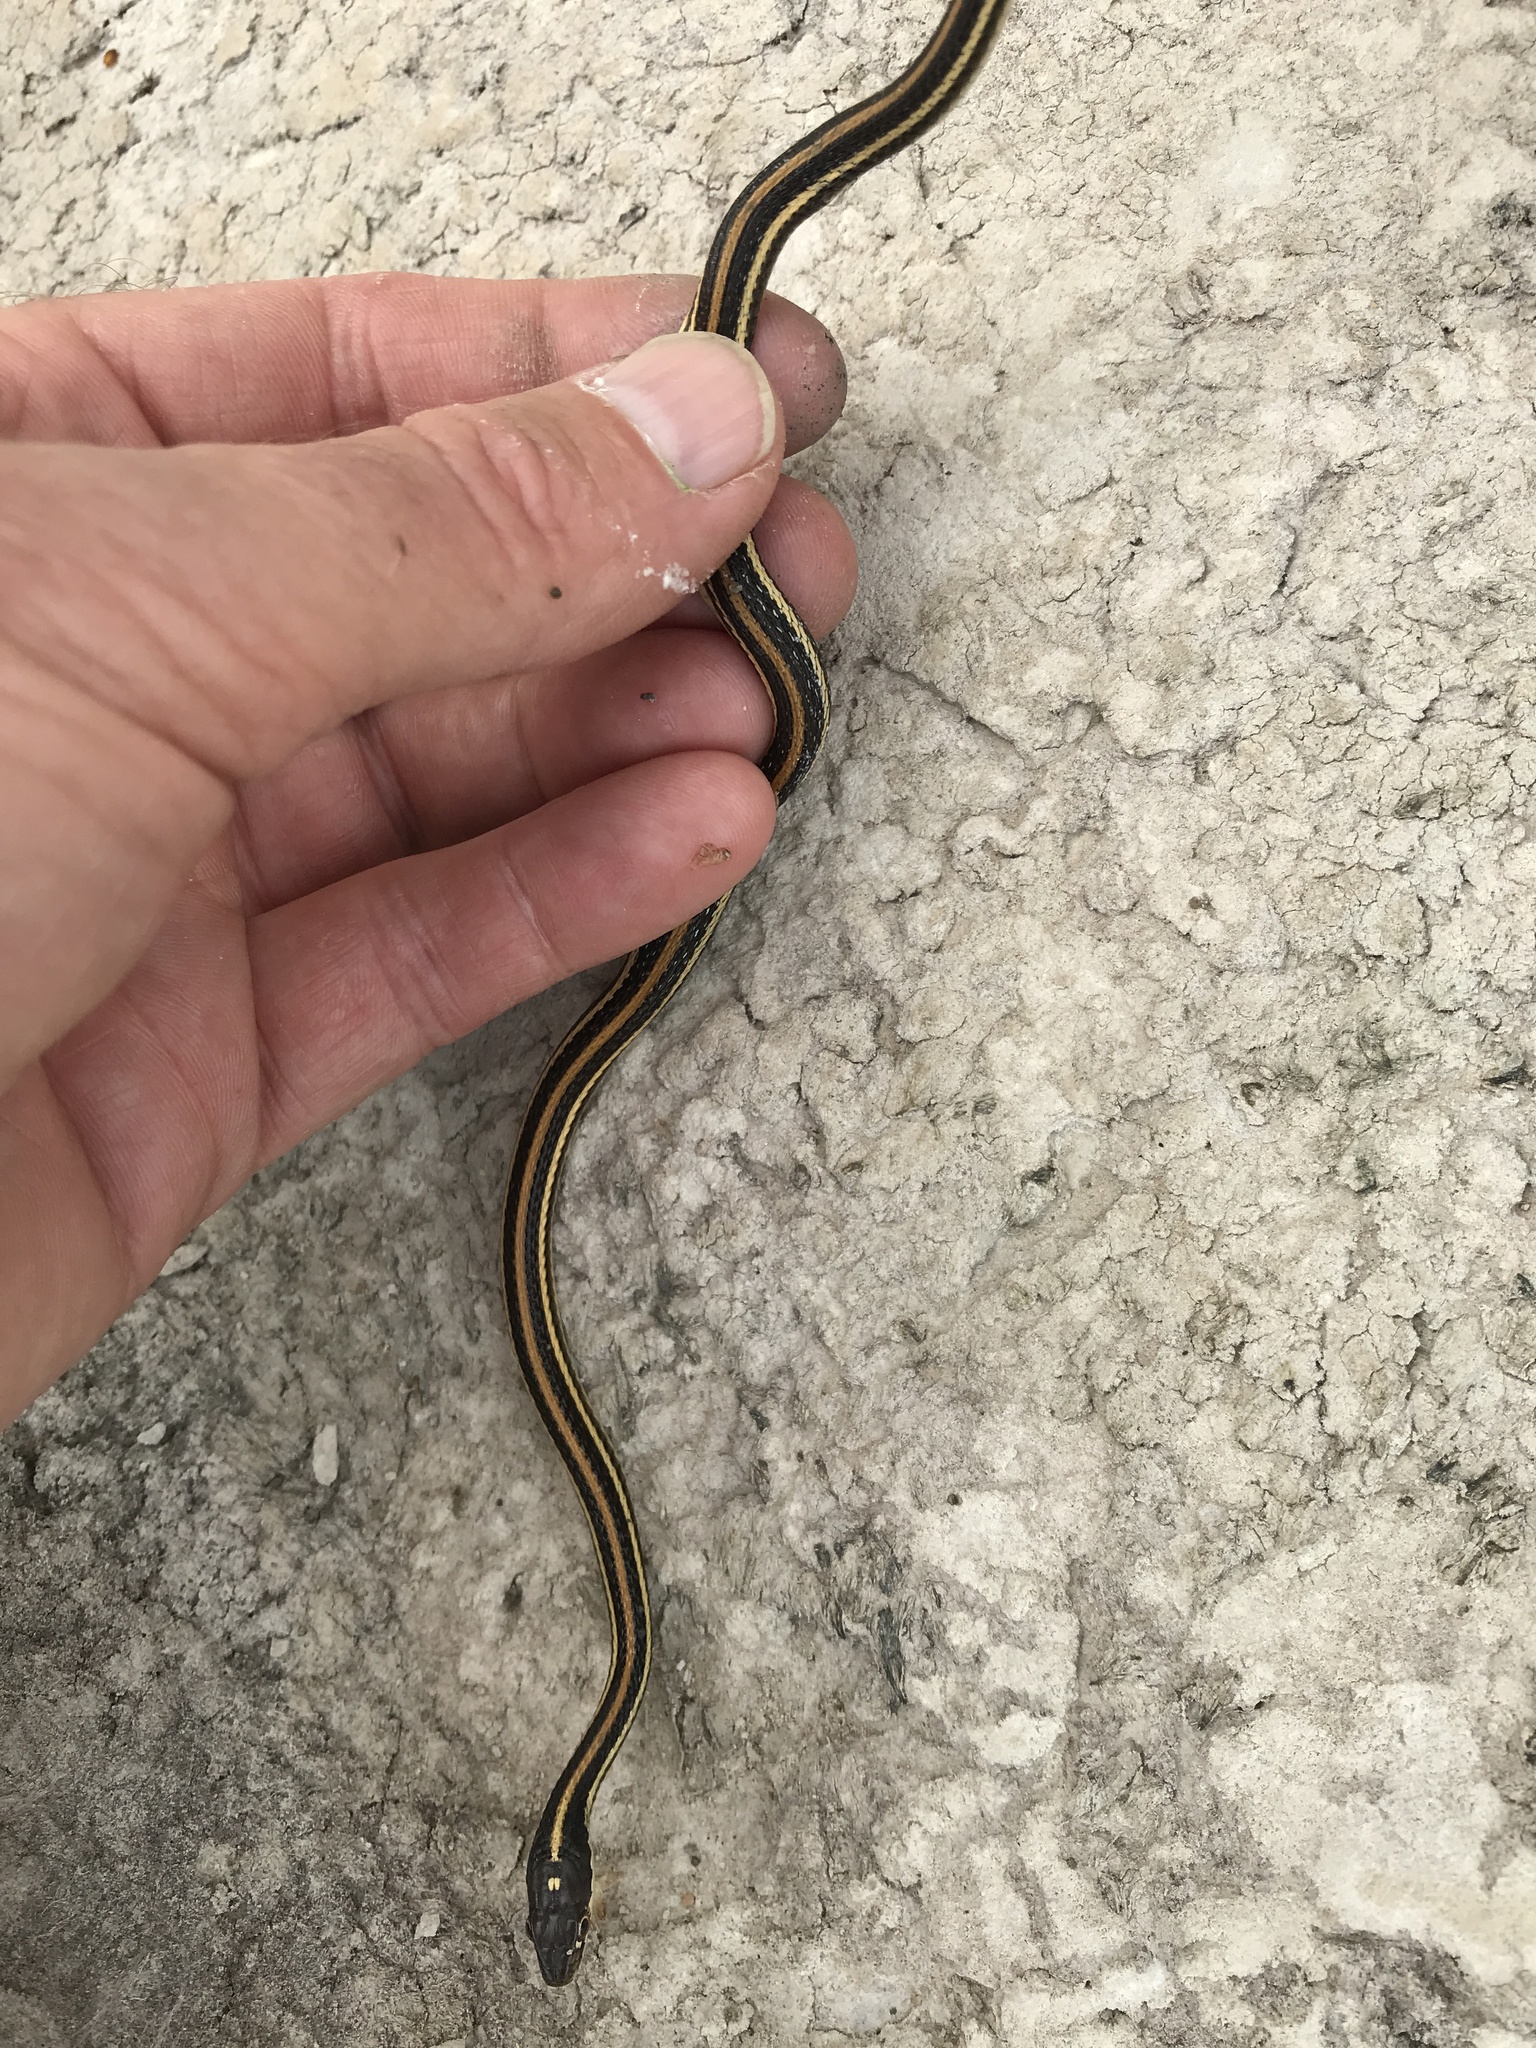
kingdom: Animalia
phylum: Chordata
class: Squamata
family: Colubridae
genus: Thamnophis
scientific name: Thamnophis proximus
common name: Western ribbon snake
